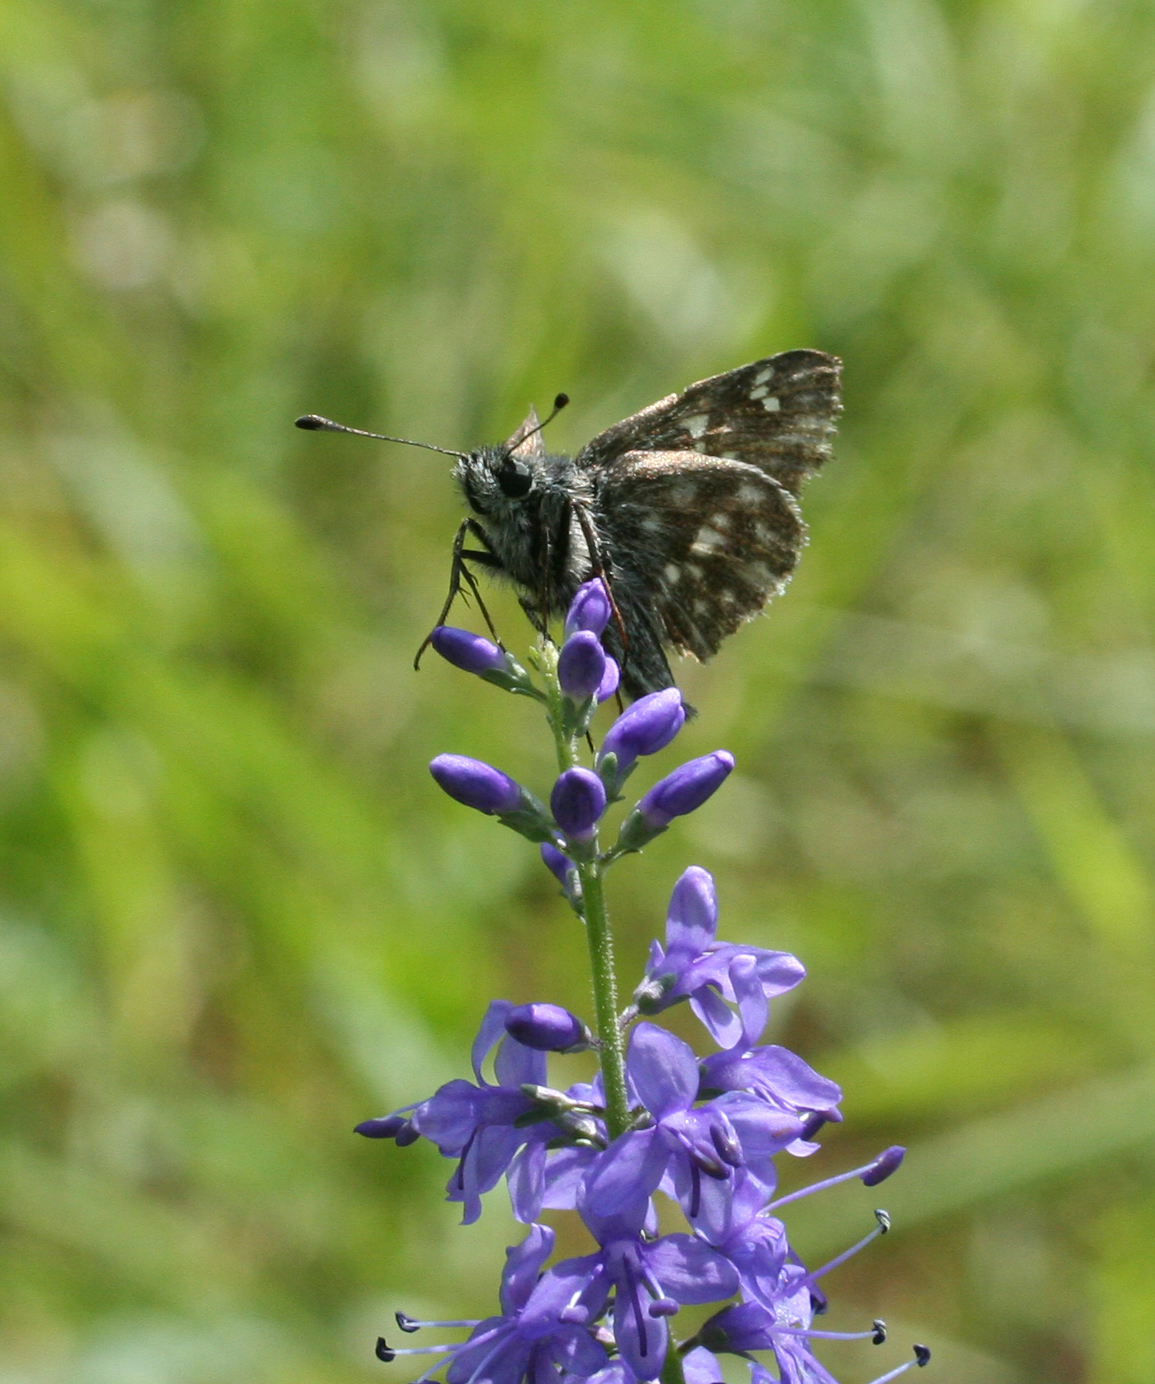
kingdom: Animalia
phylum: Arthropoda
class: Insecta
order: Lepidoptera
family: Hesperiidae
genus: Carcharodus
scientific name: Carcharodus floccifera
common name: Tufted marbled skipper
